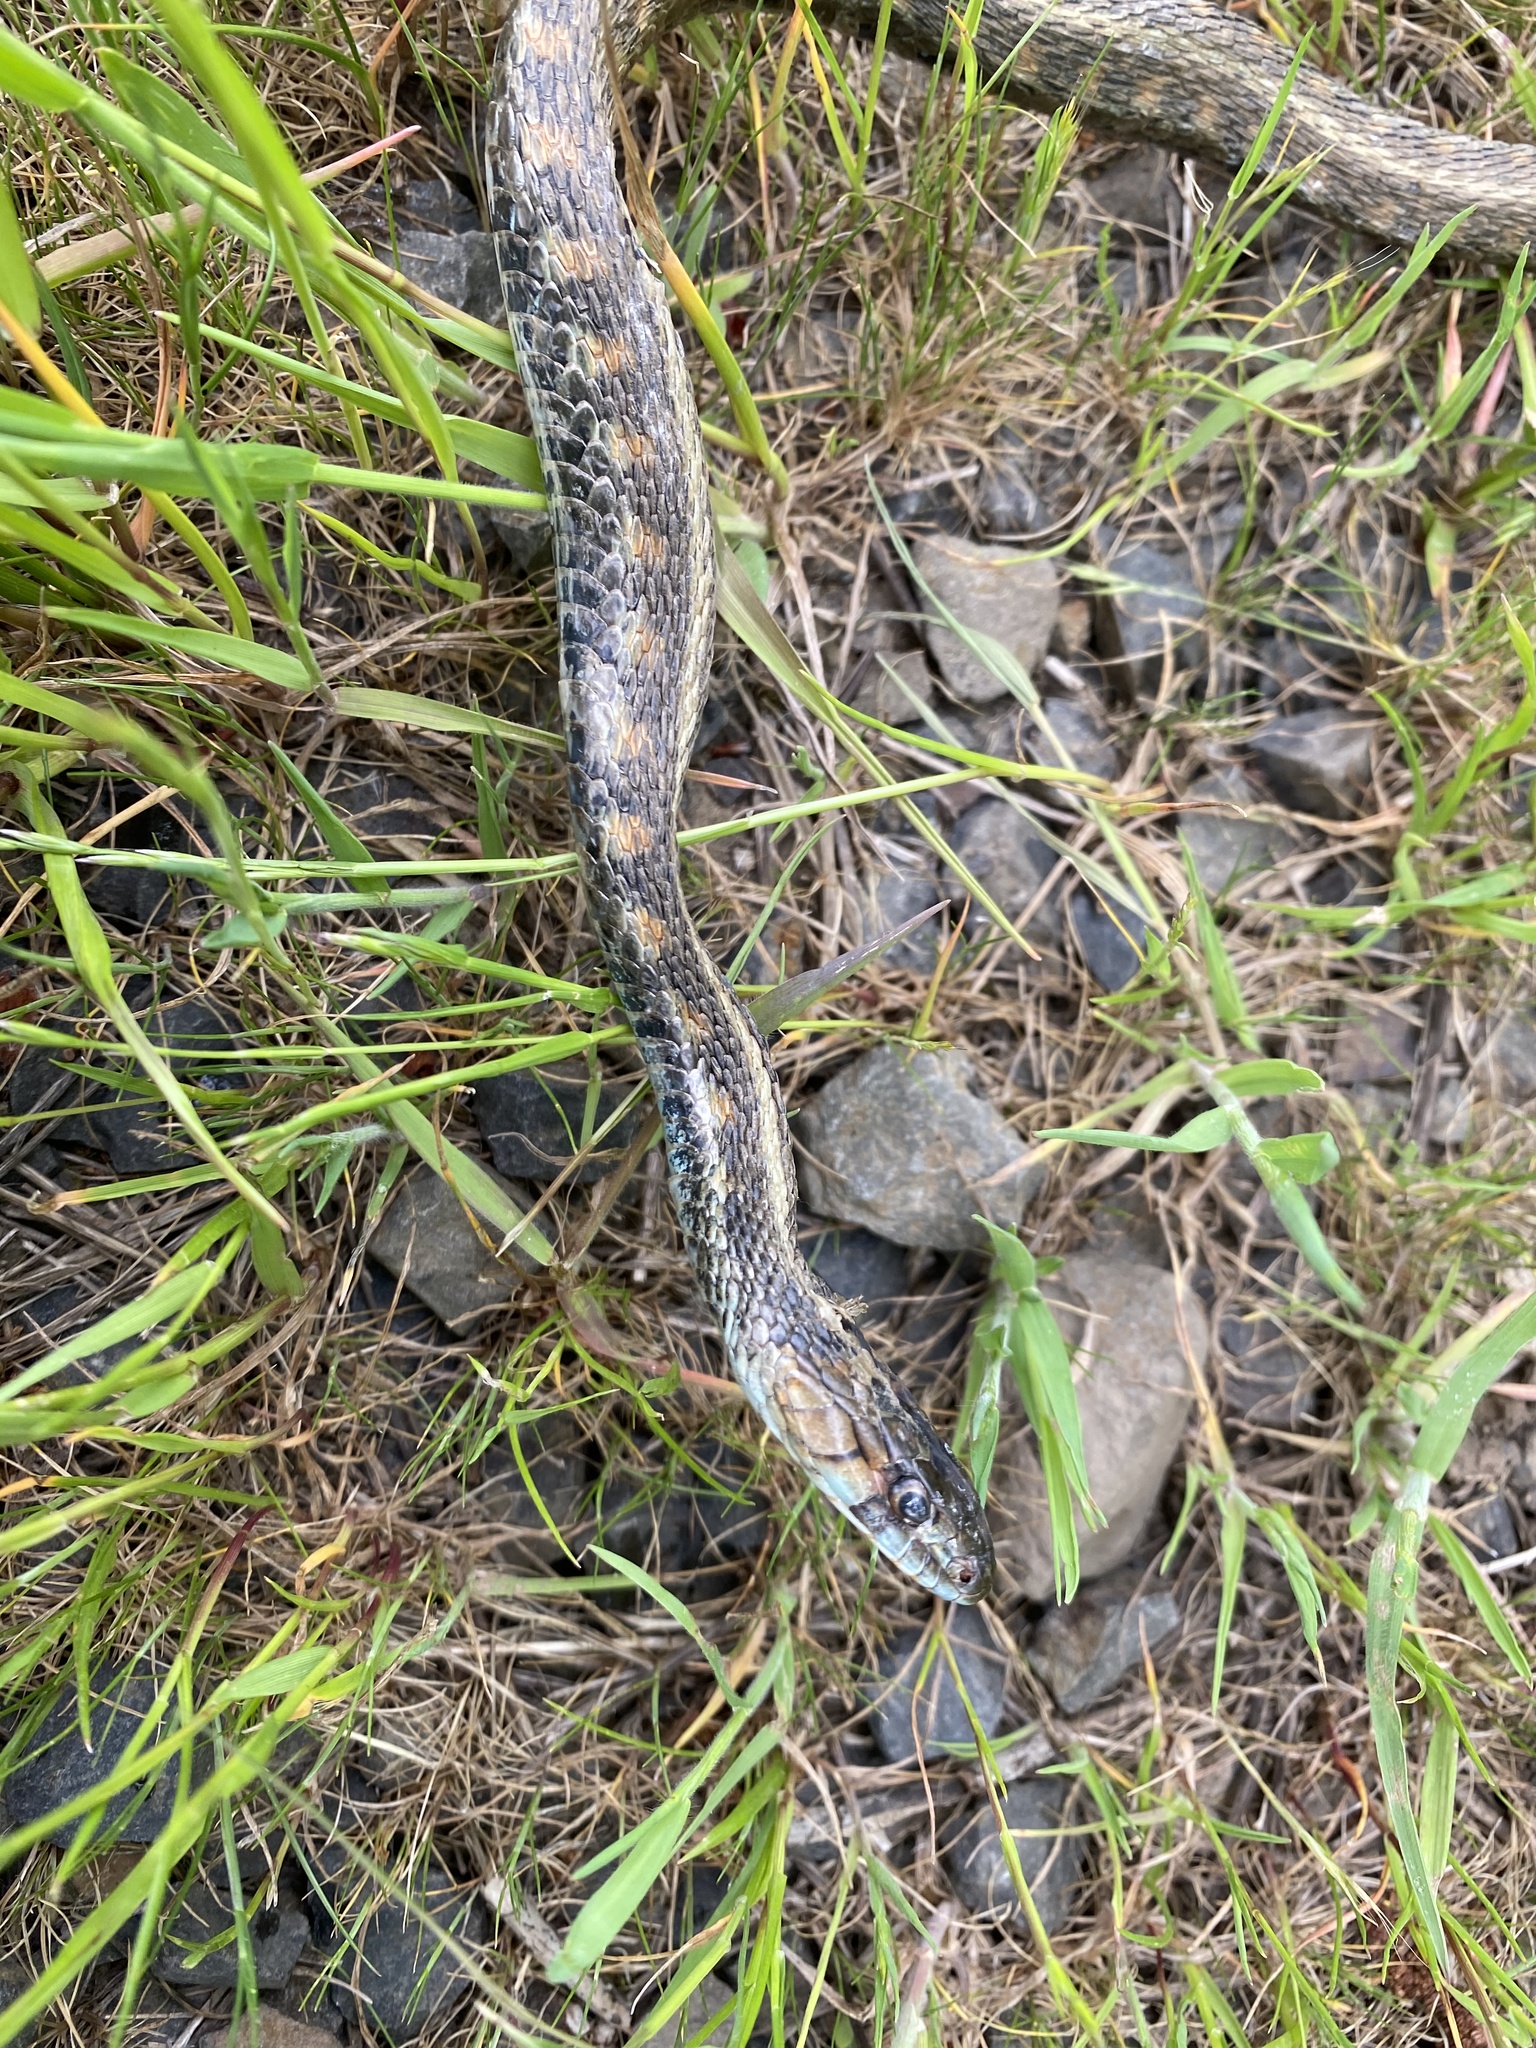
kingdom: Animalia
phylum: Chordata
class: Squamata
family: Colubridae
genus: Thamnophis
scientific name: Thamnophis sirtalis
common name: Common garter snake
